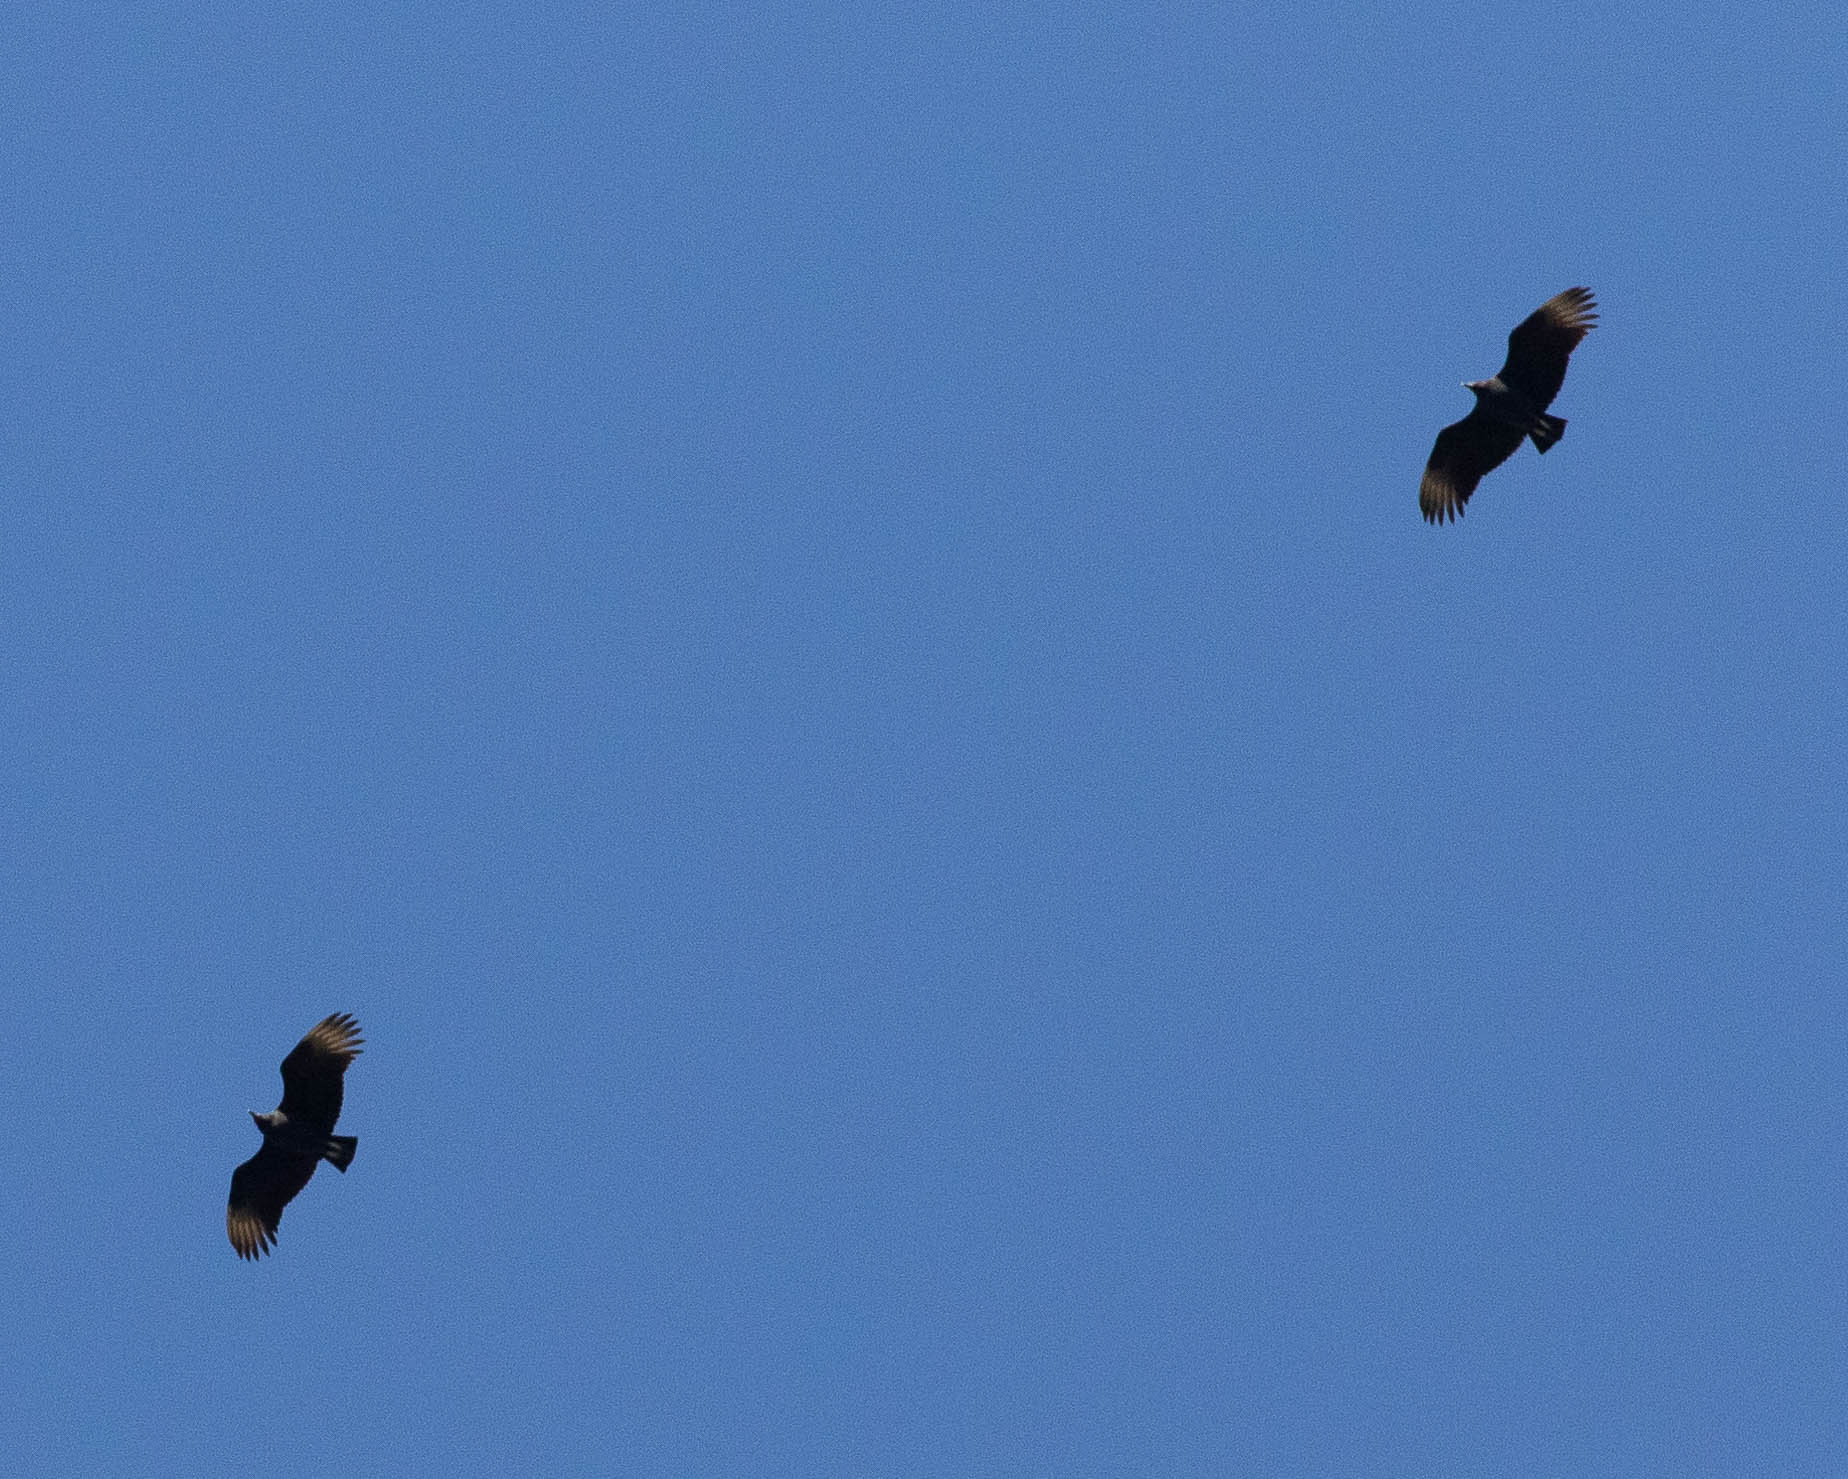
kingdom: Animalia
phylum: Chordata
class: Aves
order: Accipitriformes
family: Cathartidae
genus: Coragyps
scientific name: Coragyps atratus
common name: Black vulture
